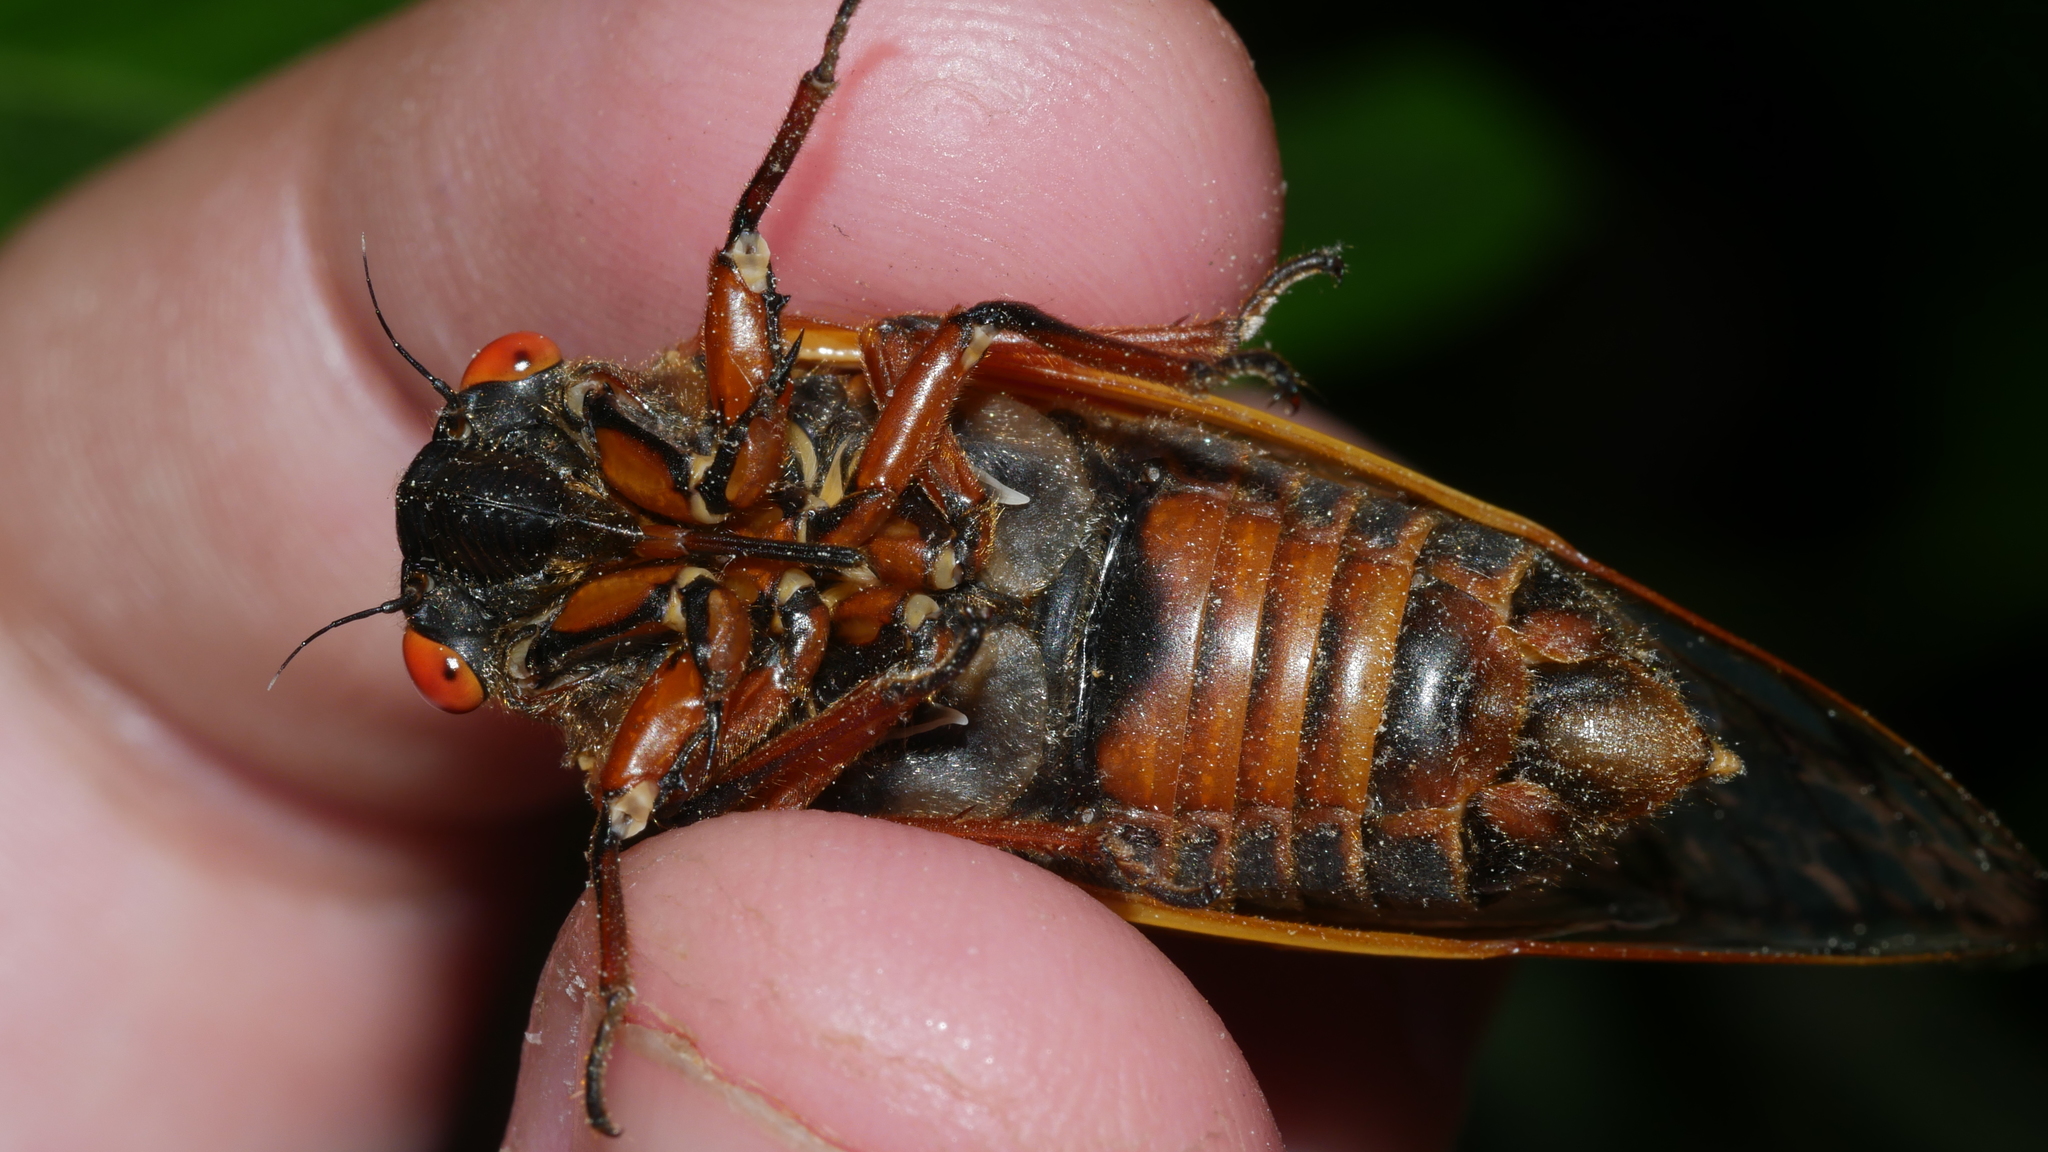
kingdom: Animalia
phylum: Arthropoda
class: Insecta
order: Hemiptera
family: Cicadidae
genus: Magicicada
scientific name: Magicicada septendecim
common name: Periodical cicada
